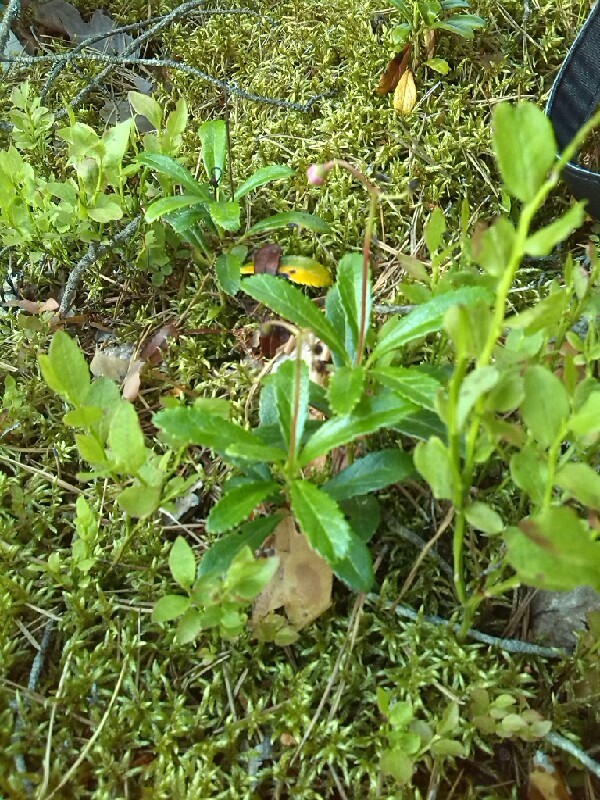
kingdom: Plantae
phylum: Tracheophyta
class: Magnoliopsida
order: Ericales
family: Ericaceae
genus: Chimaphila
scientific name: Chimaphila umbellata
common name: Pipsissewa
